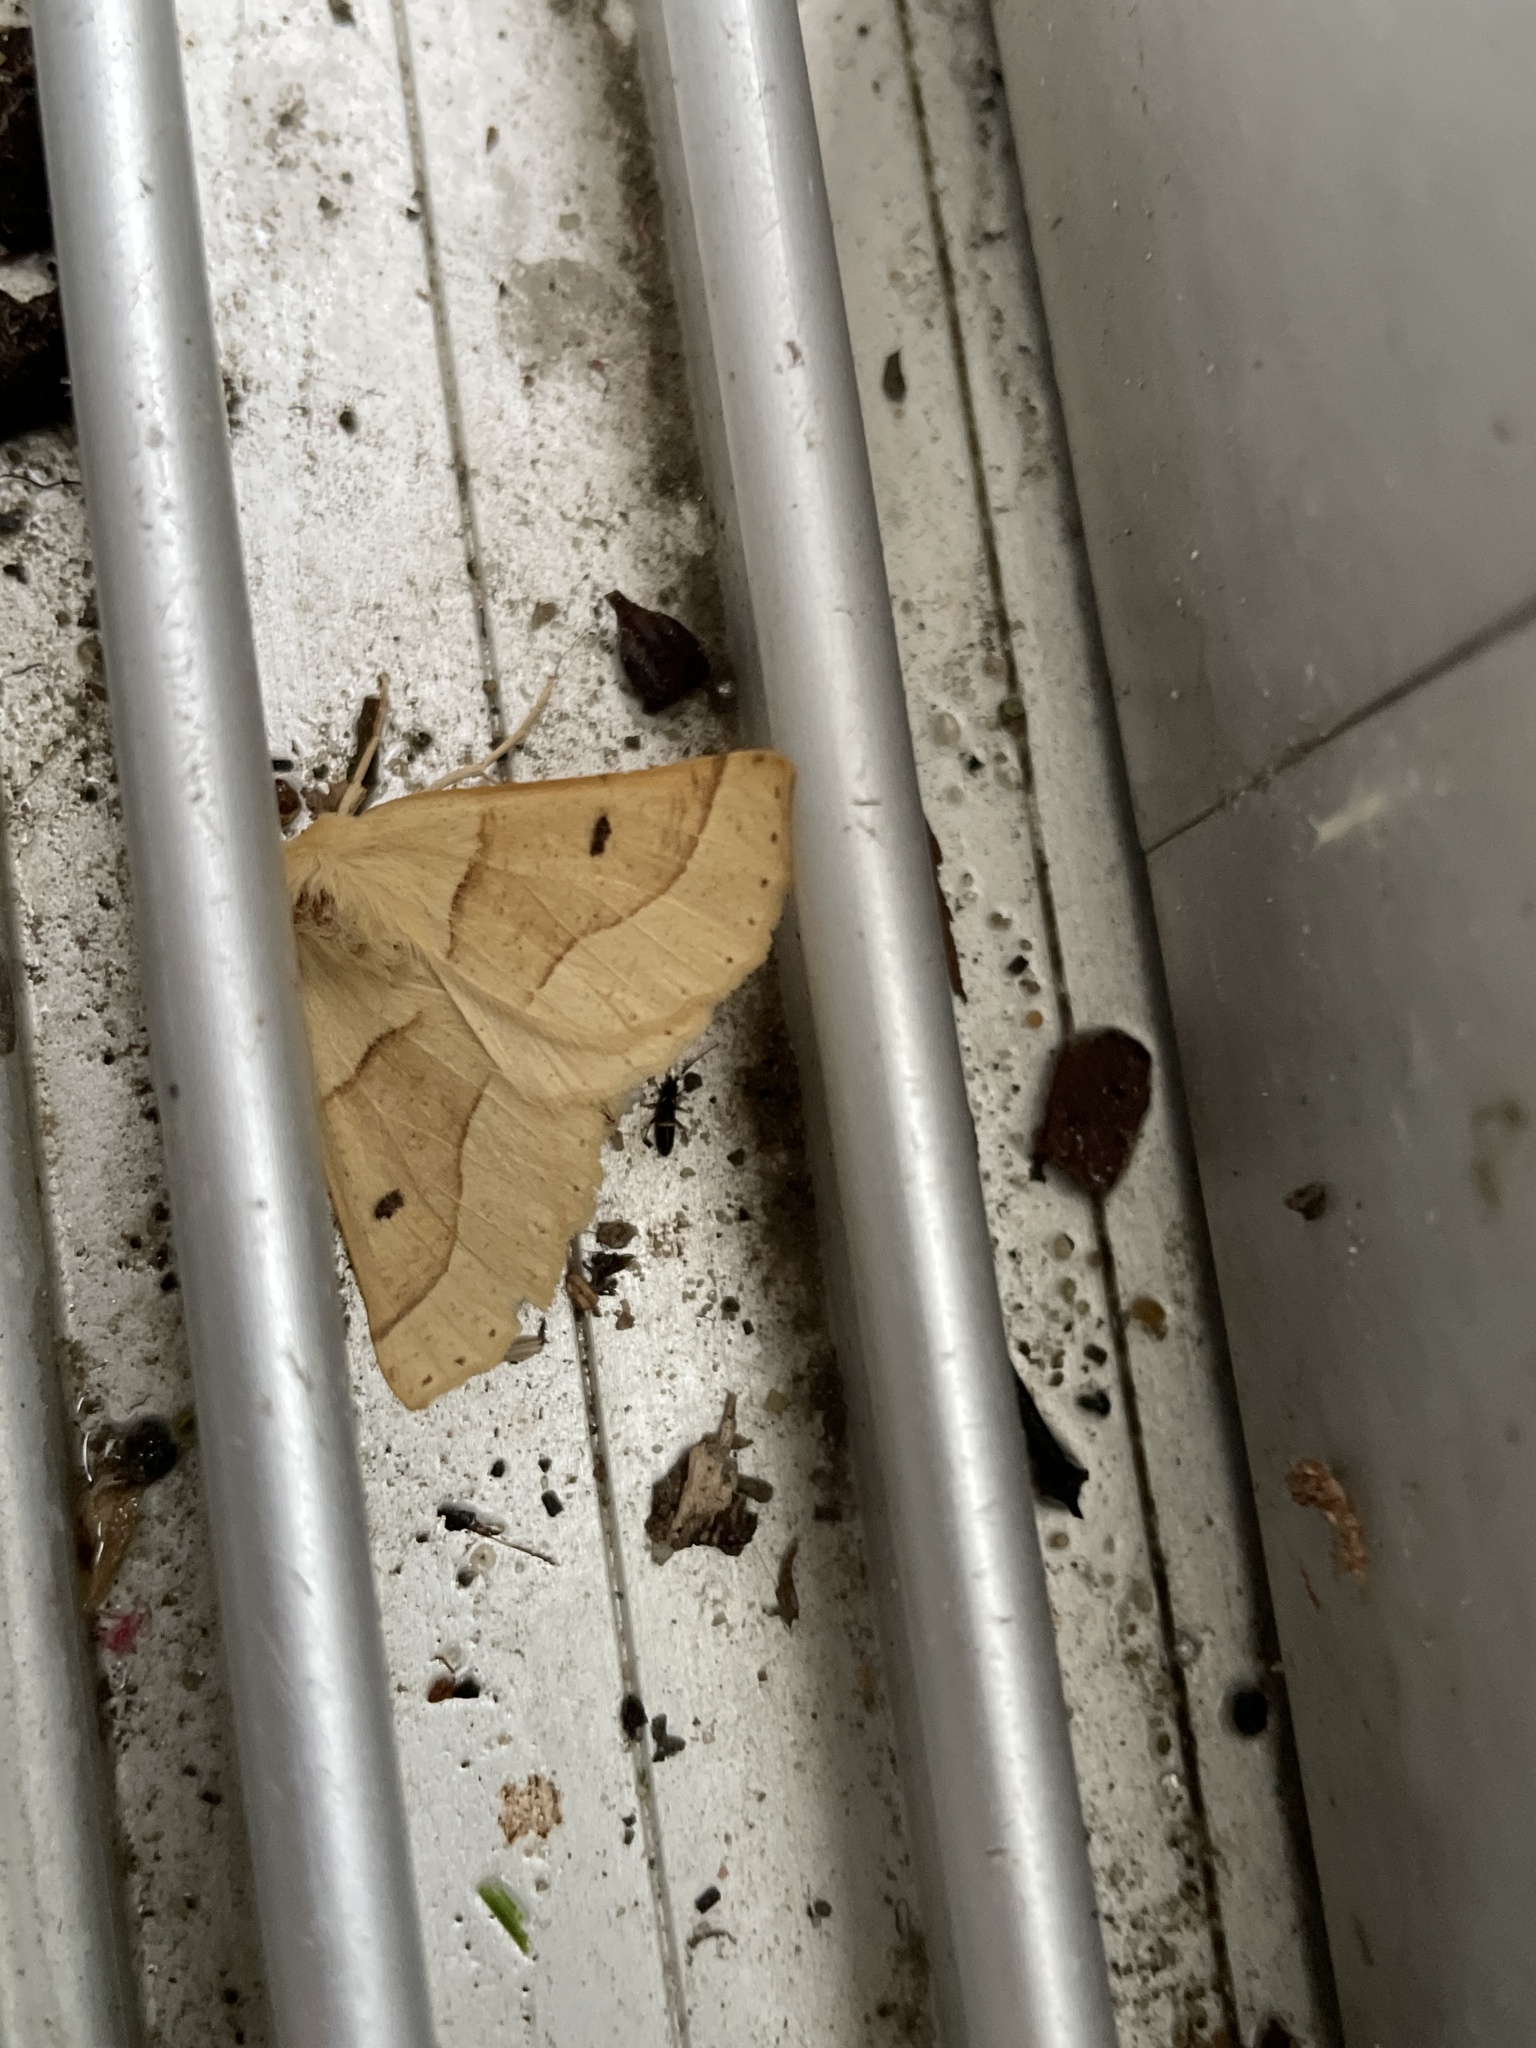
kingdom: Animalia
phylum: Arthropoda
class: Insecta
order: Lepidoptera
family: Geometridae
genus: Crocallis
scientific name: Crocallis elinguaria
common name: Scalloped oak
